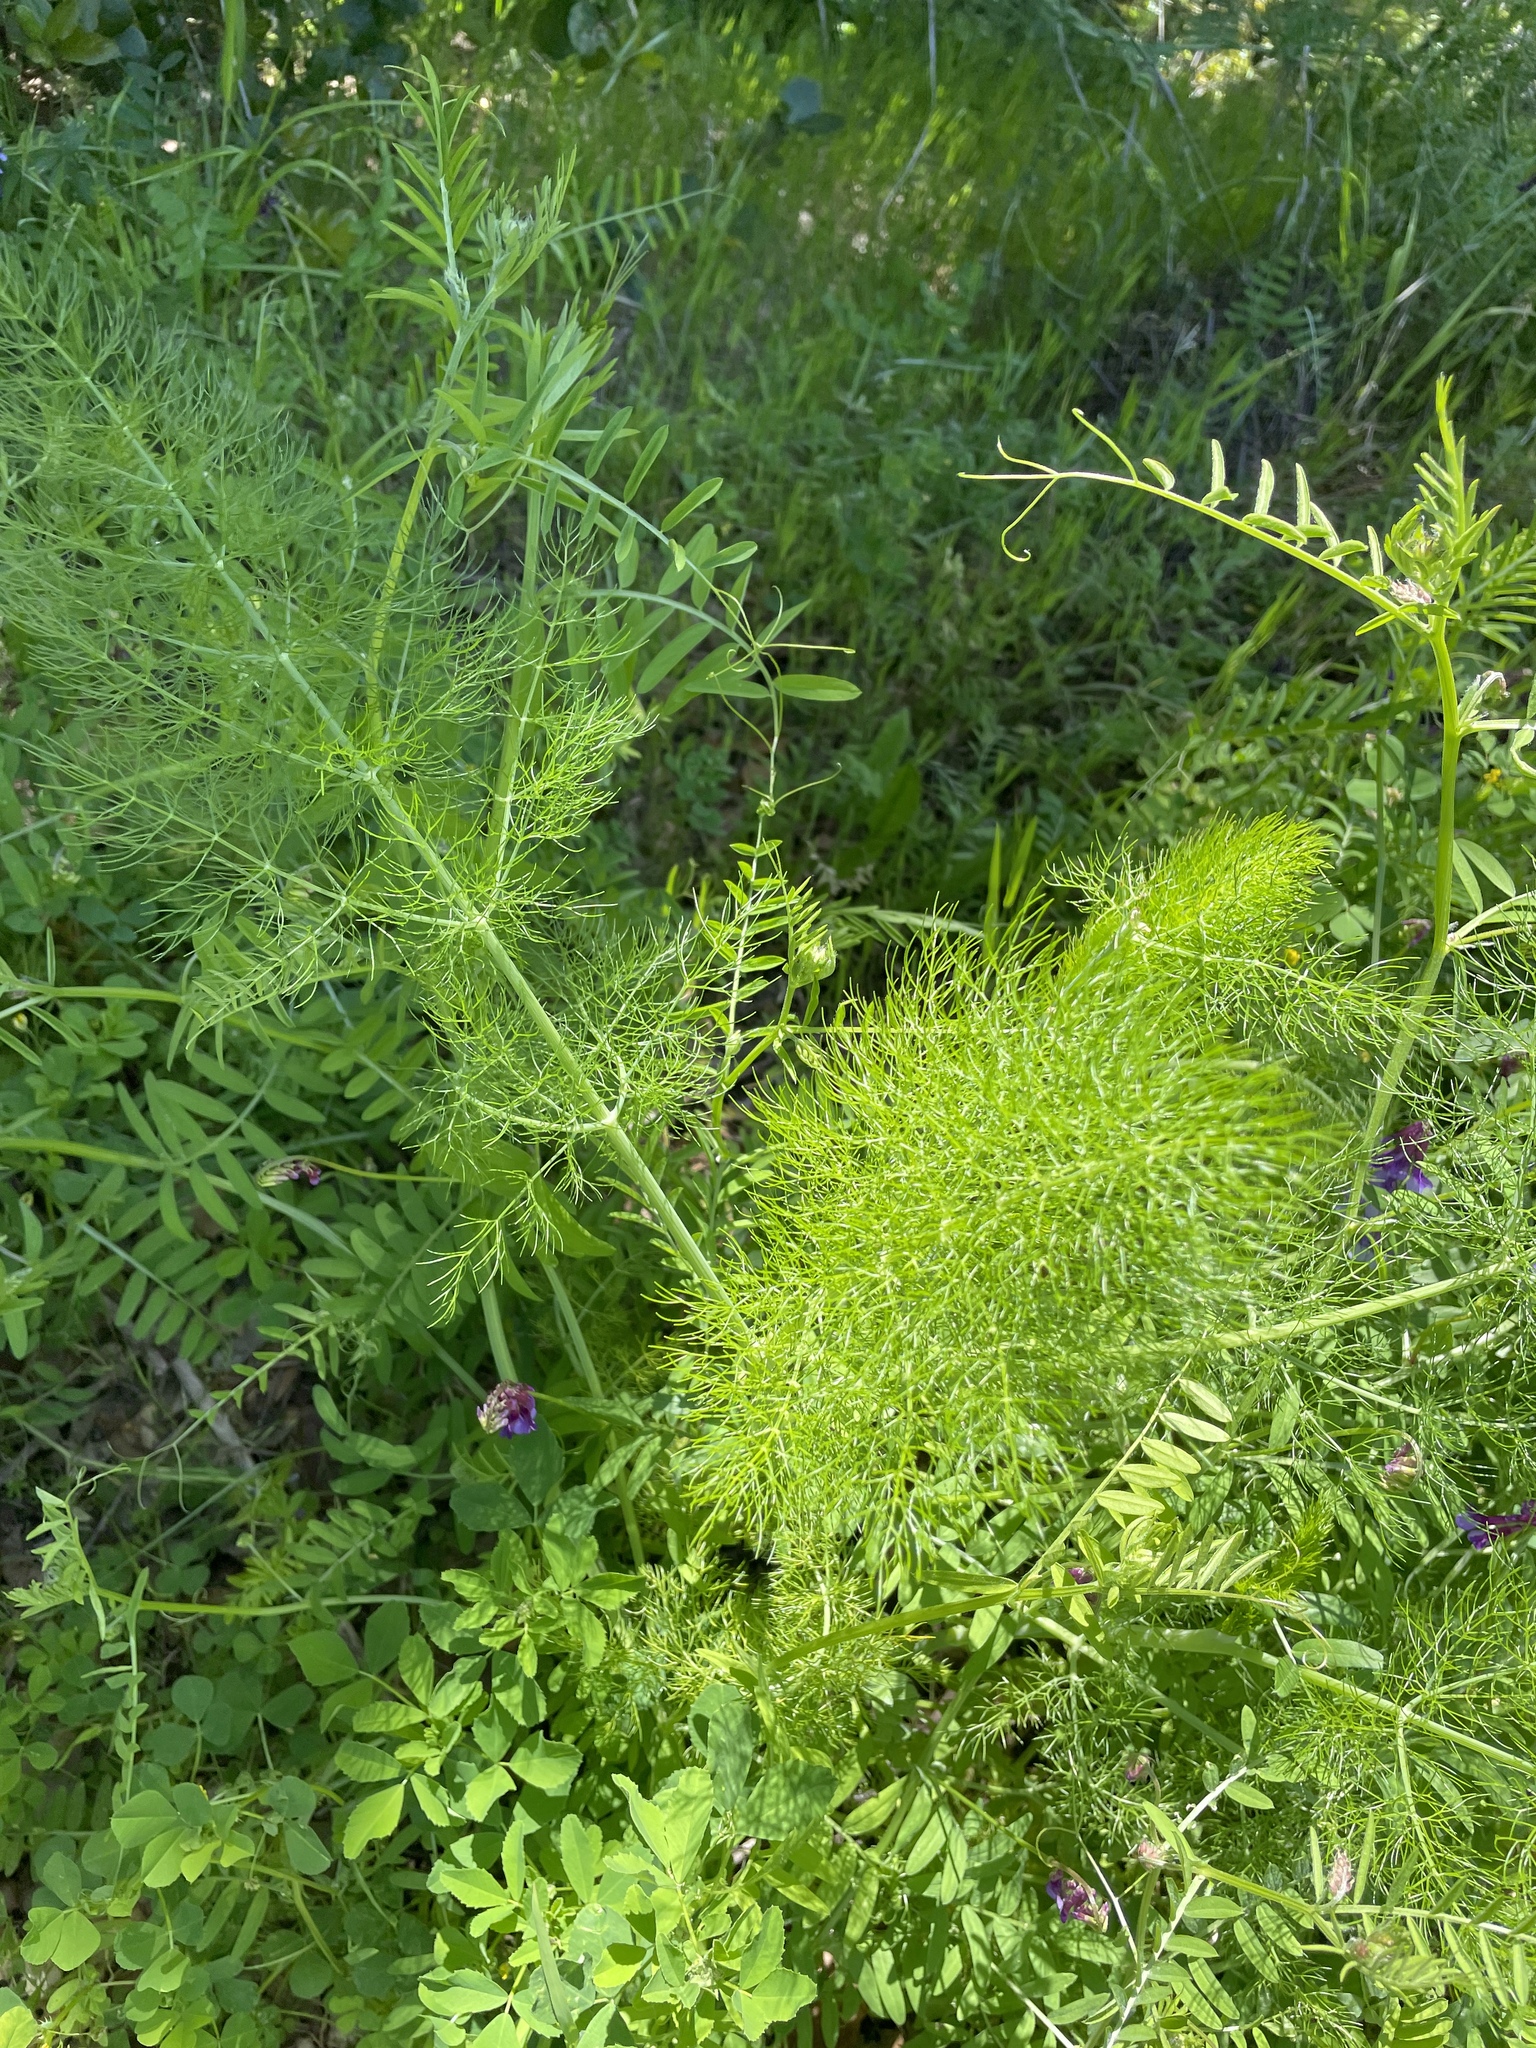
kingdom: Plantae
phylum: Tracheophyta
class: Magnoliopsida
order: Apiales
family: Apiaceae
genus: Foeniculum
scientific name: Foeniculum vulgare
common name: Fennel
